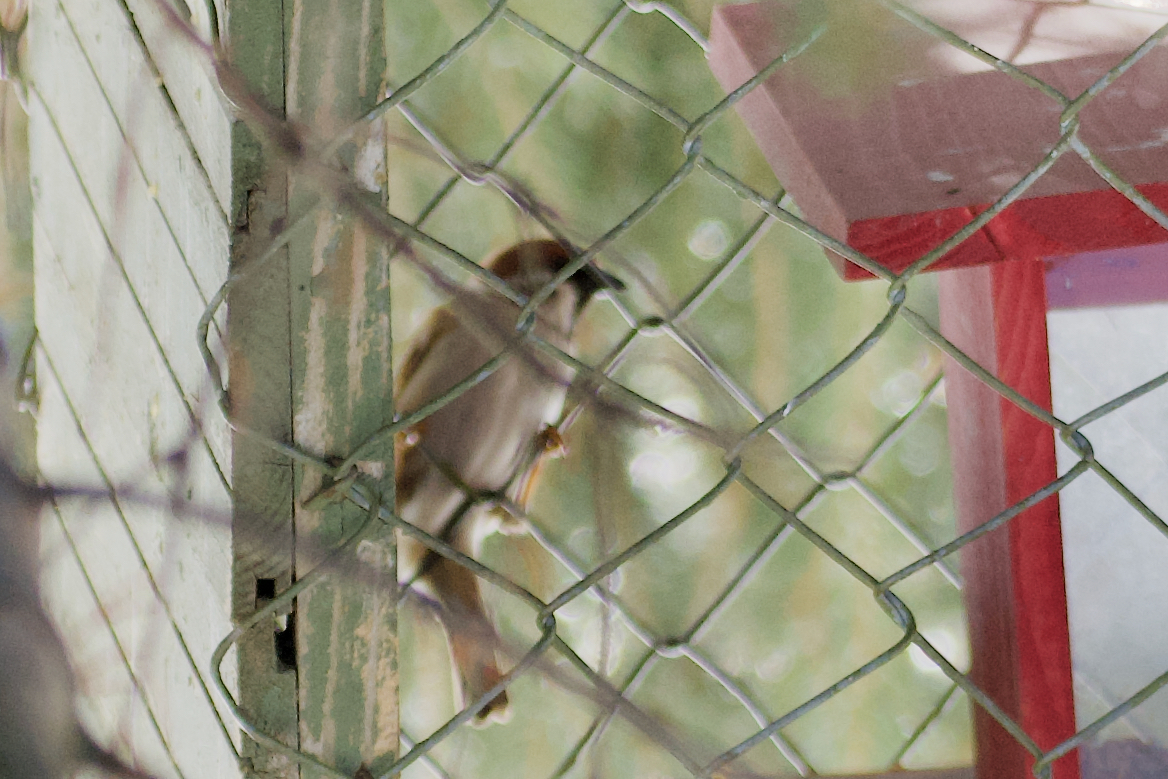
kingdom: Animalia
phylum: Chordata
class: Aves
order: Passeriformes
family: Passeridae
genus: Passer
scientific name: Passer montanus
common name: Eurasian tree sparrow
